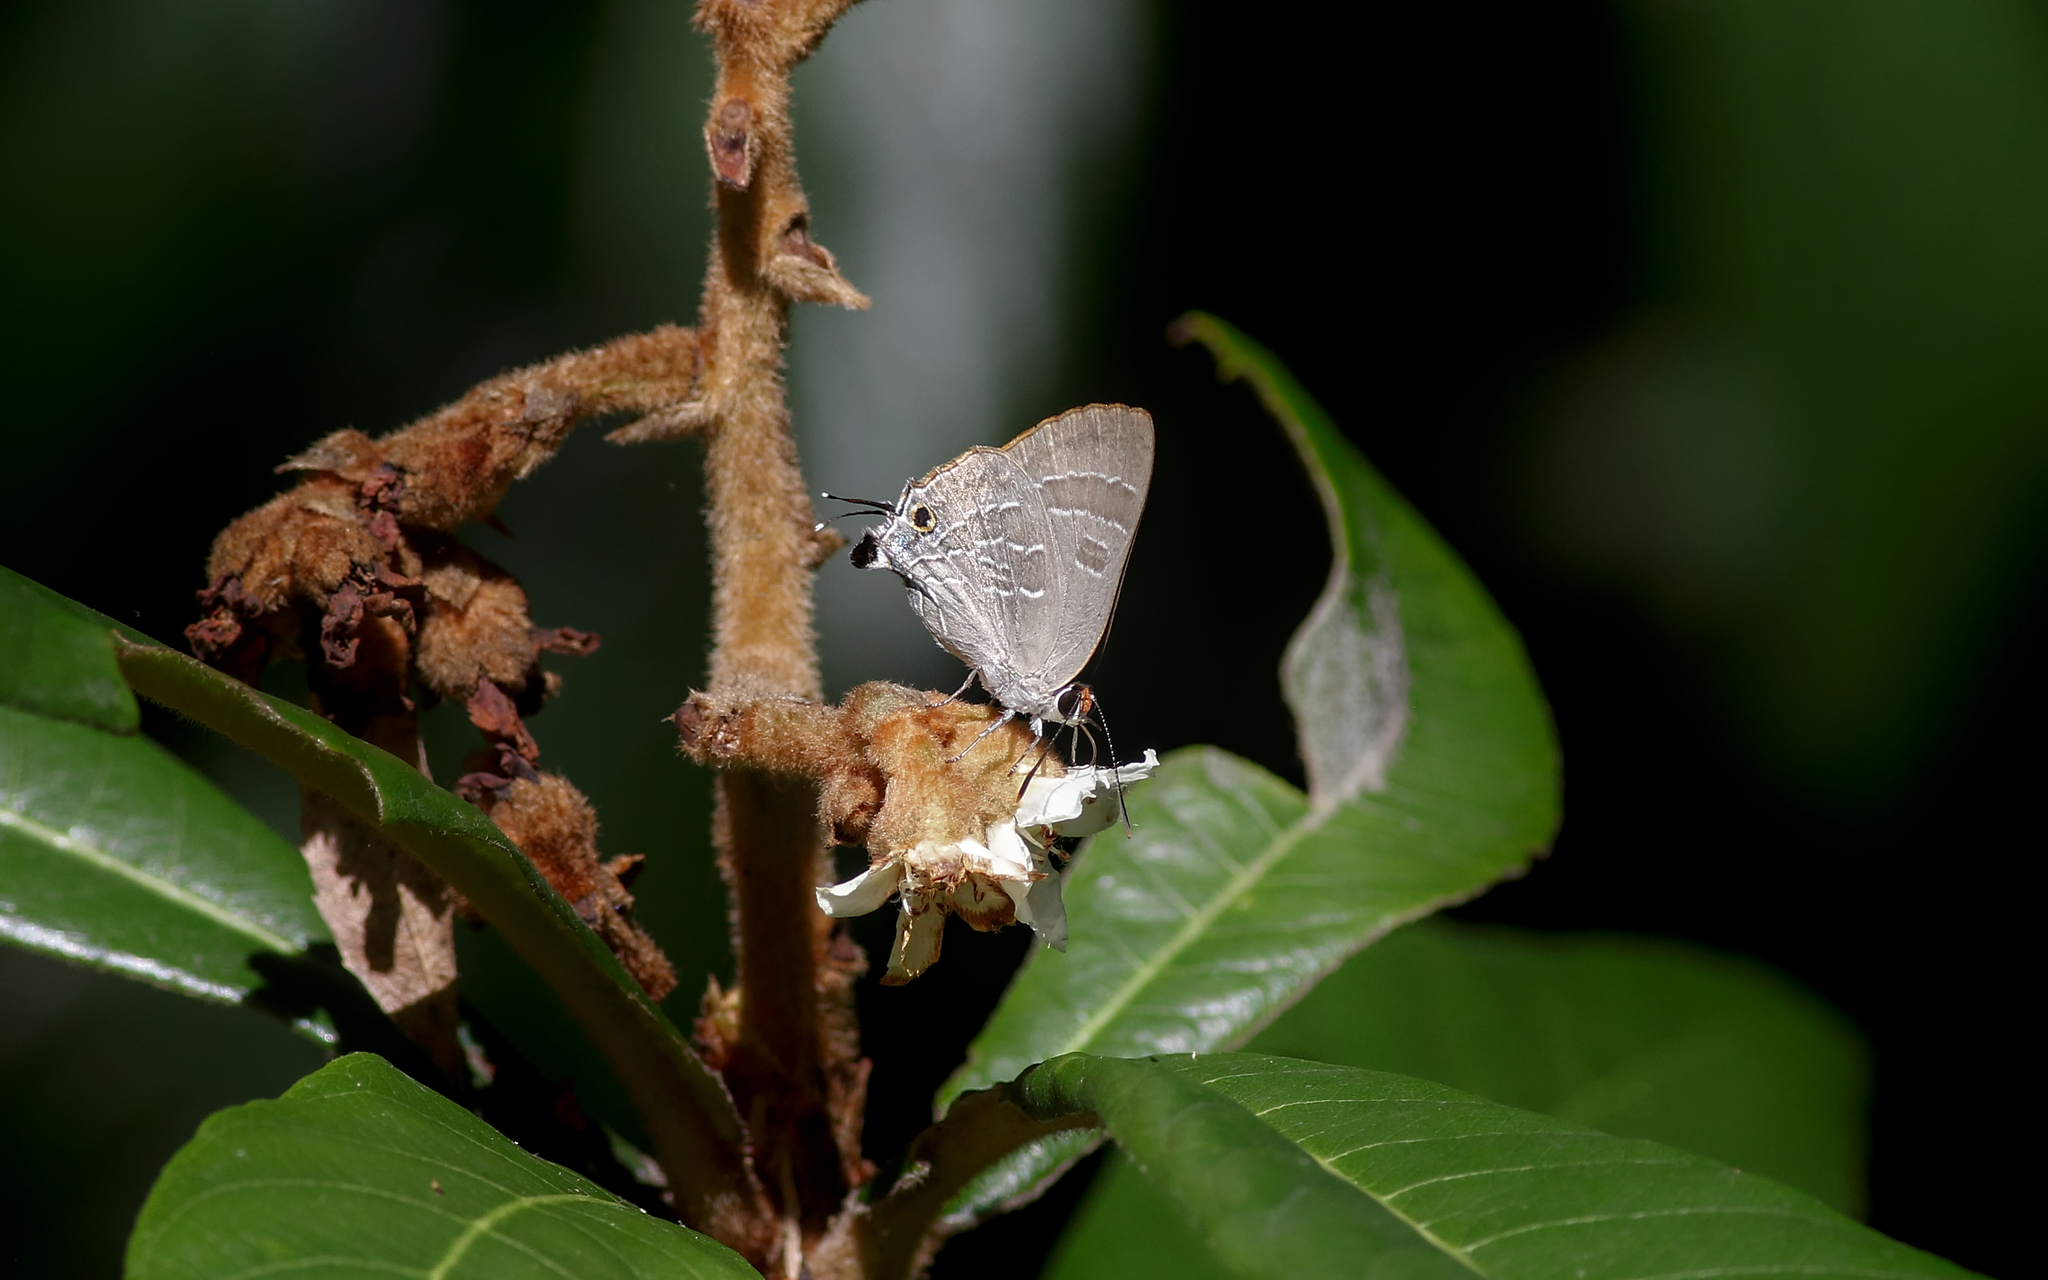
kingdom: Animalia
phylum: Arthropoda
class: Insecta
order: Lepidoptera
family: Lycaenidae
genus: Deudorix
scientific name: Deudorix diovis
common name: Bright cornelian
